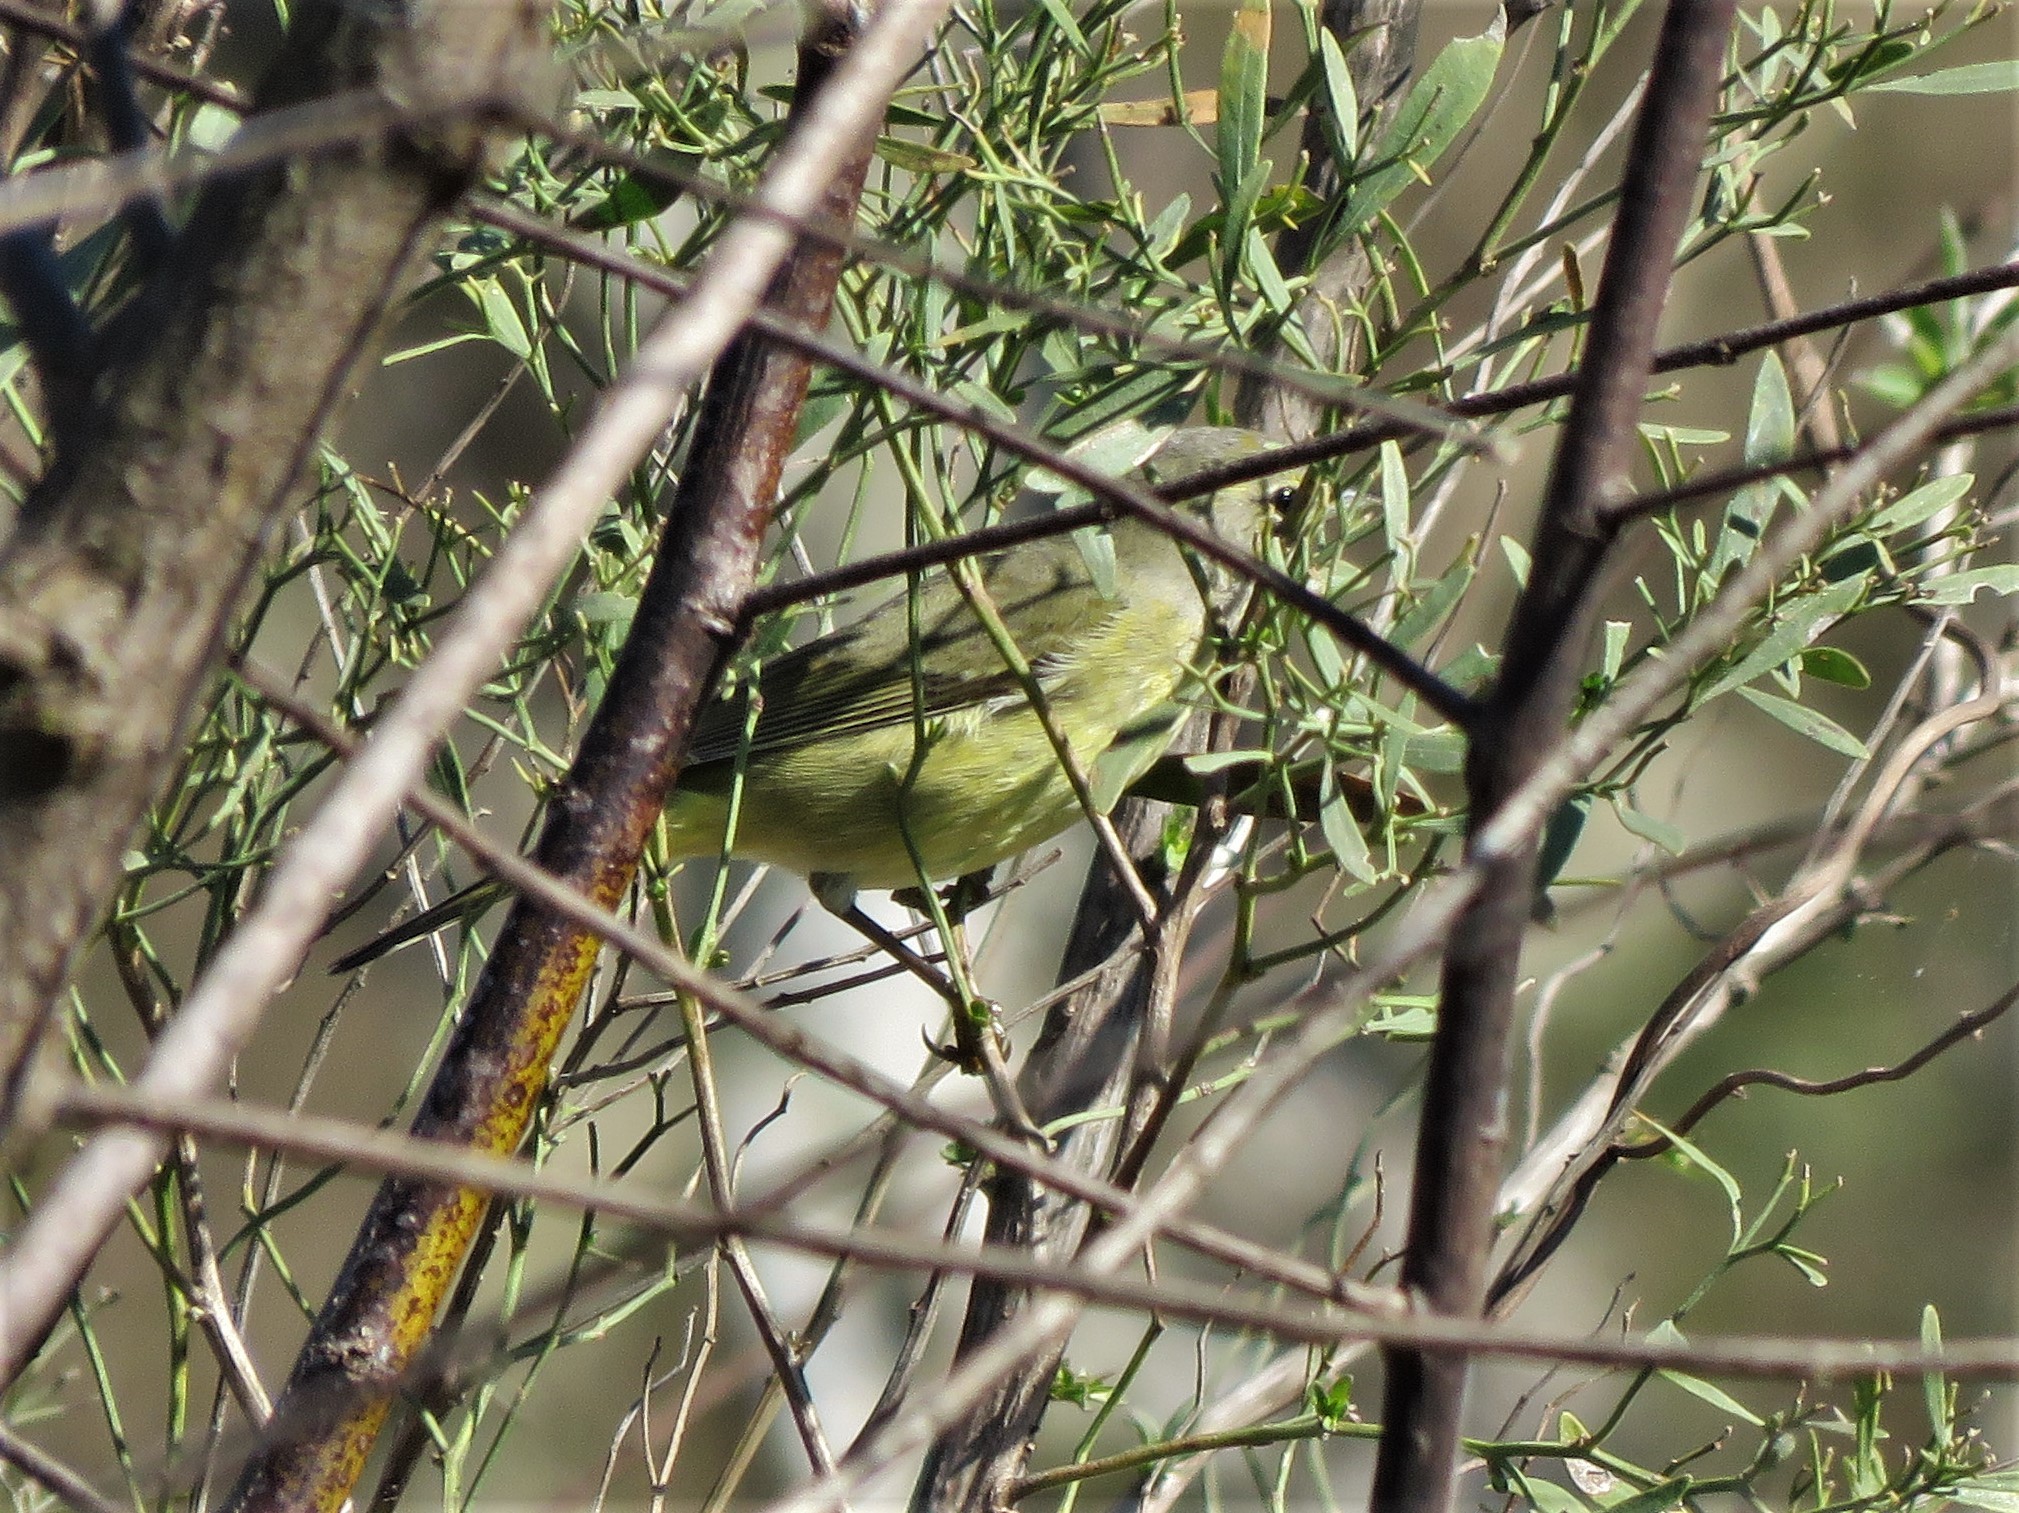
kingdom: Animalia
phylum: Chordata
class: Aves
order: Passeriformes
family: Parulidae
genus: Leiothlypis
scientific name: Leiothlypis celata
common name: Orange-crowned warbler
